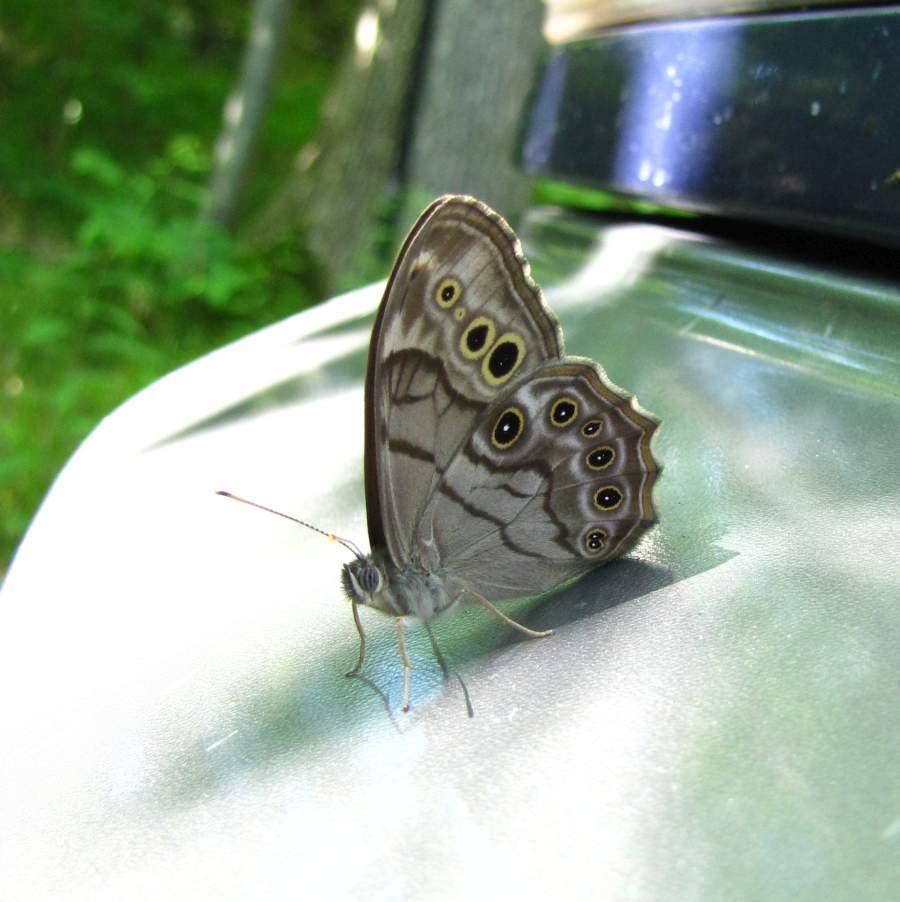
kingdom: Animalia
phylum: Arthropoda
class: Insecta
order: Lepidoptera
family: Nymphalidae
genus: Lethe
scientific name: Lethe anthedon
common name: Northern pearly-eye
